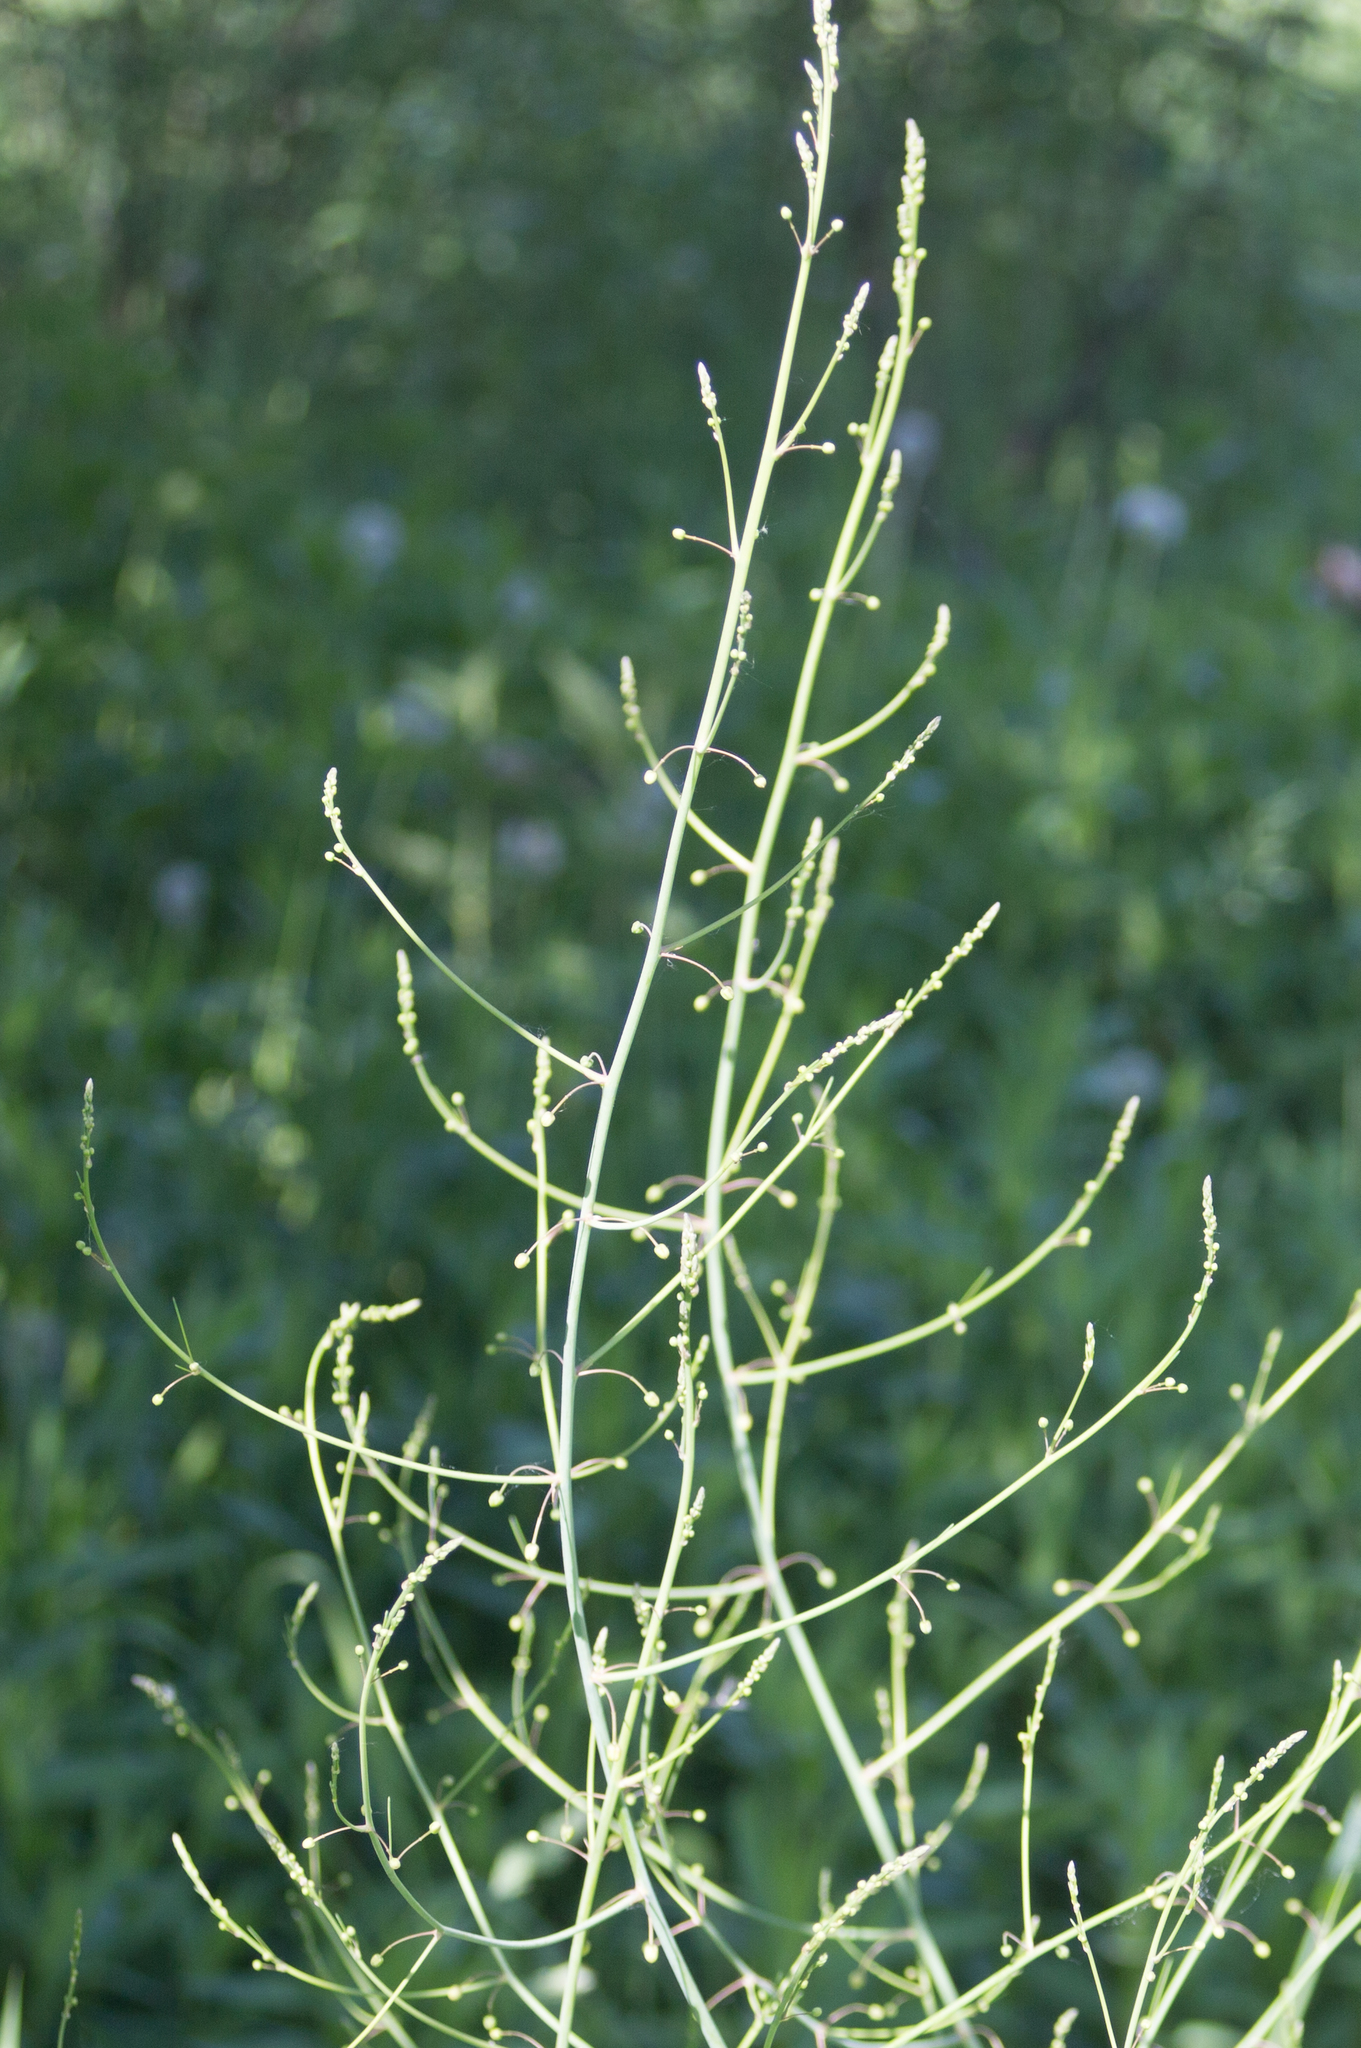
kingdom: Plantae
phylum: Tracheophyta
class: Liliopsida
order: Asparagales
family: Asparagaceae
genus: Asparagus
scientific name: Asparagus officinalis
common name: Garden asparagus
